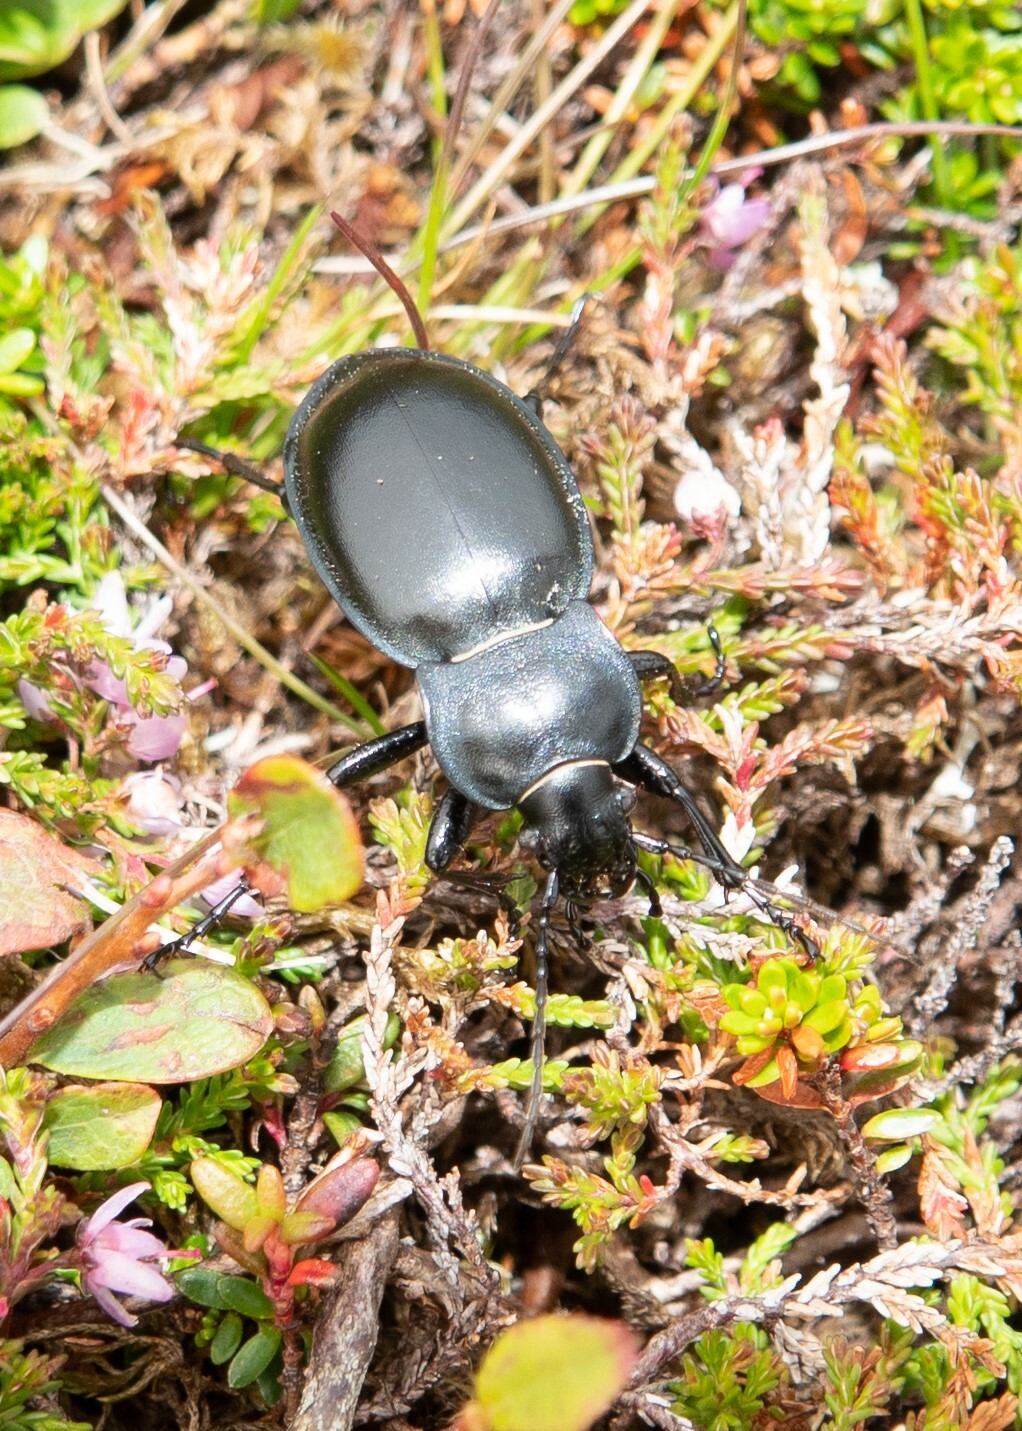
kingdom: Animalia
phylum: Arthropoda
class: Insecta
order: Coleoptera
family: Carabidae
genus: Carabus
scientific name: Carabus glabratus
